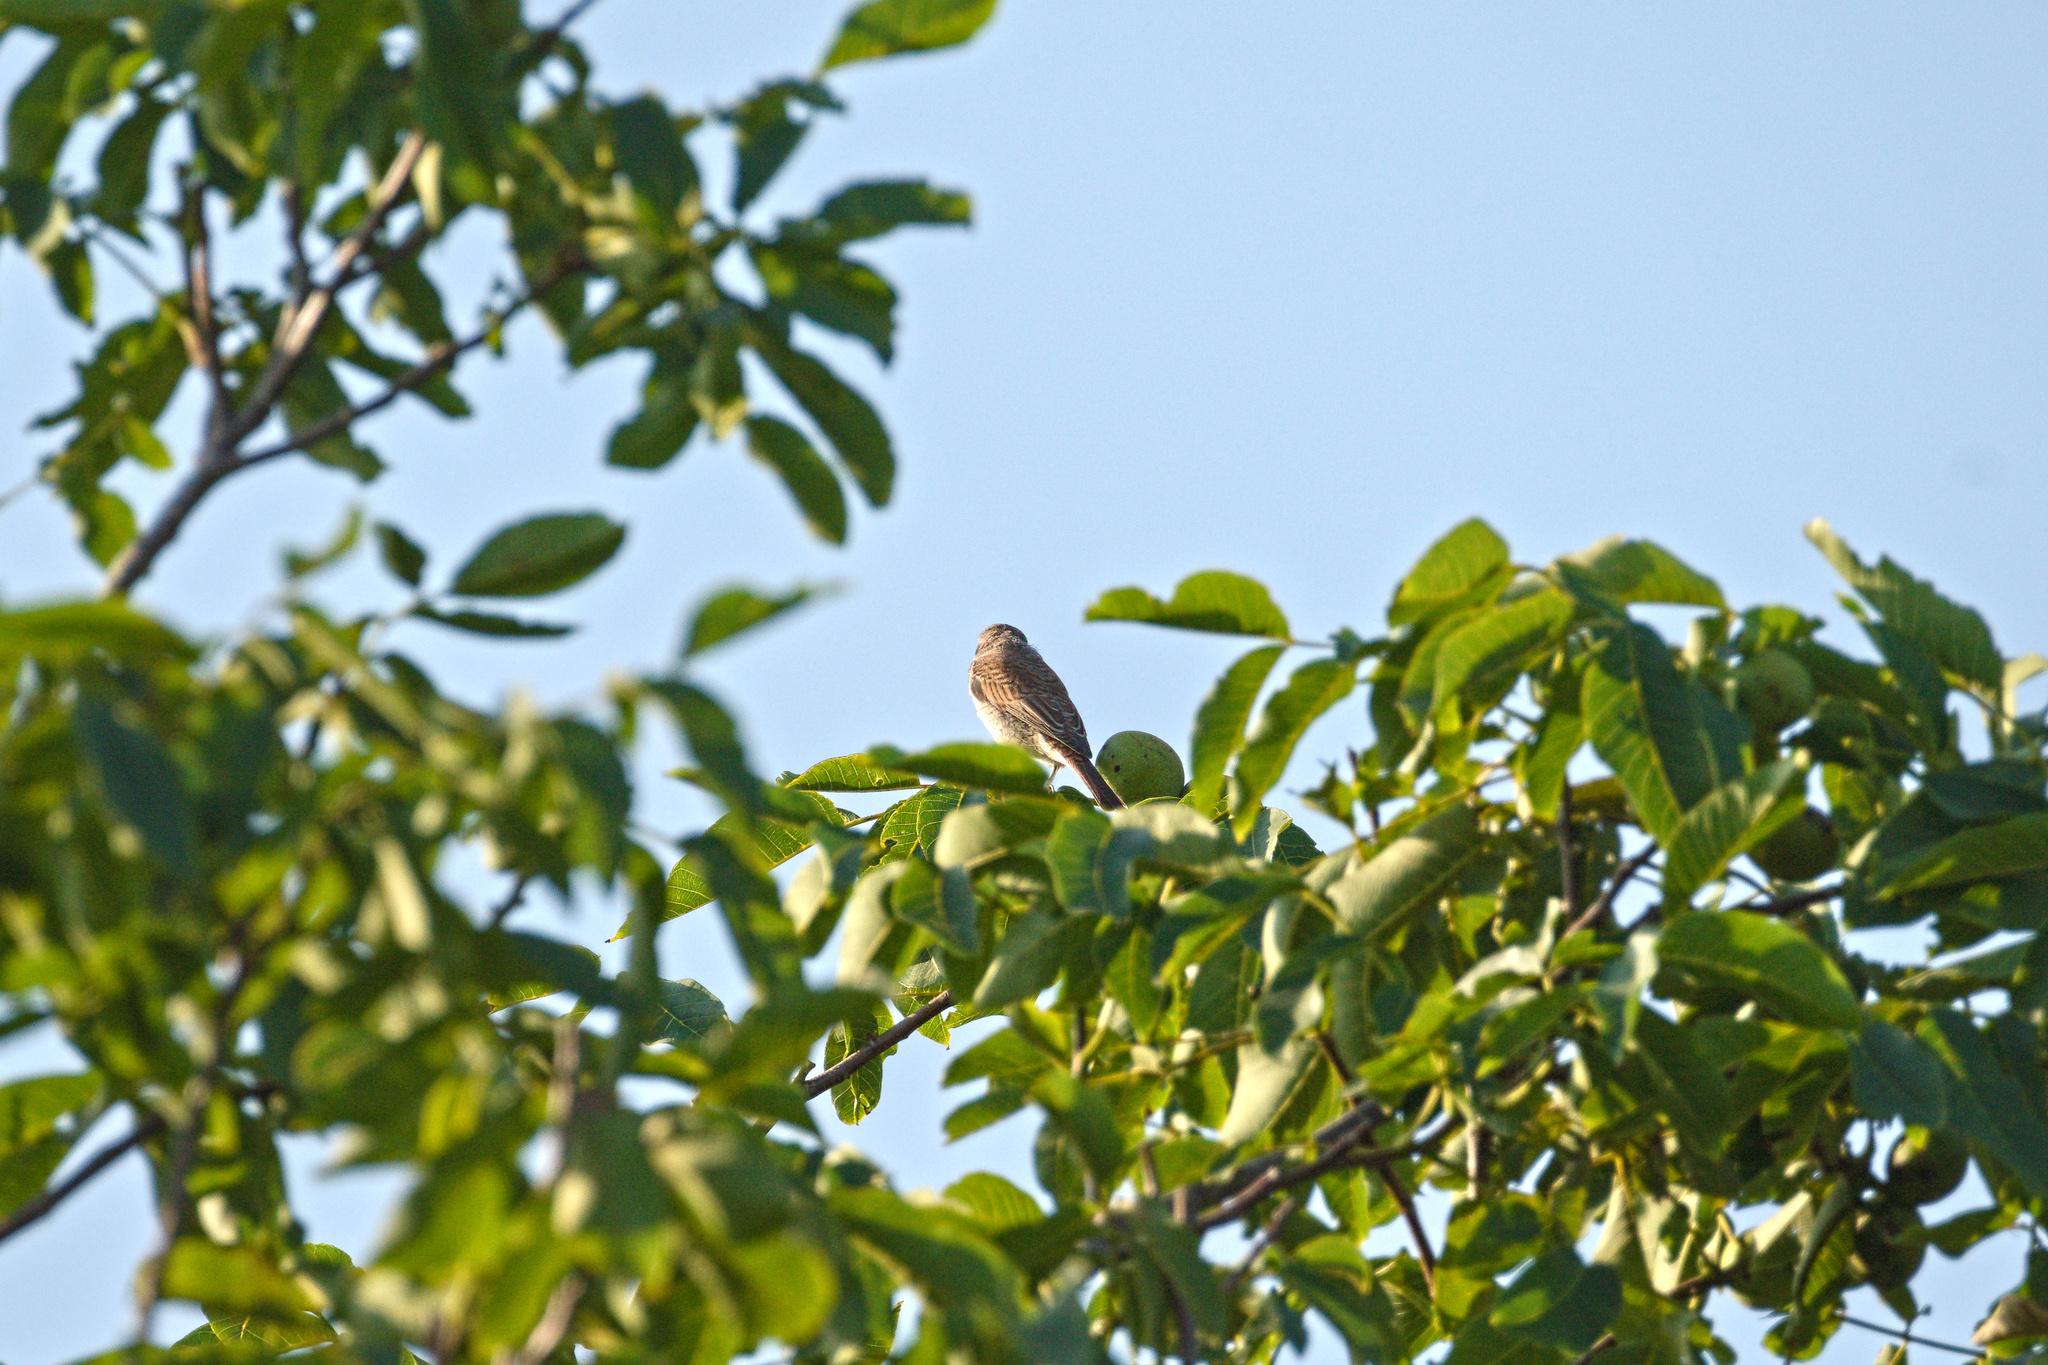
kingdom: Animalia
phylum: Chordata
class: Aves
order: Passeriformes
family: Laniidae
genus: Lanius
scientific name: Lanius collurio
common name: Red-backed shrike
